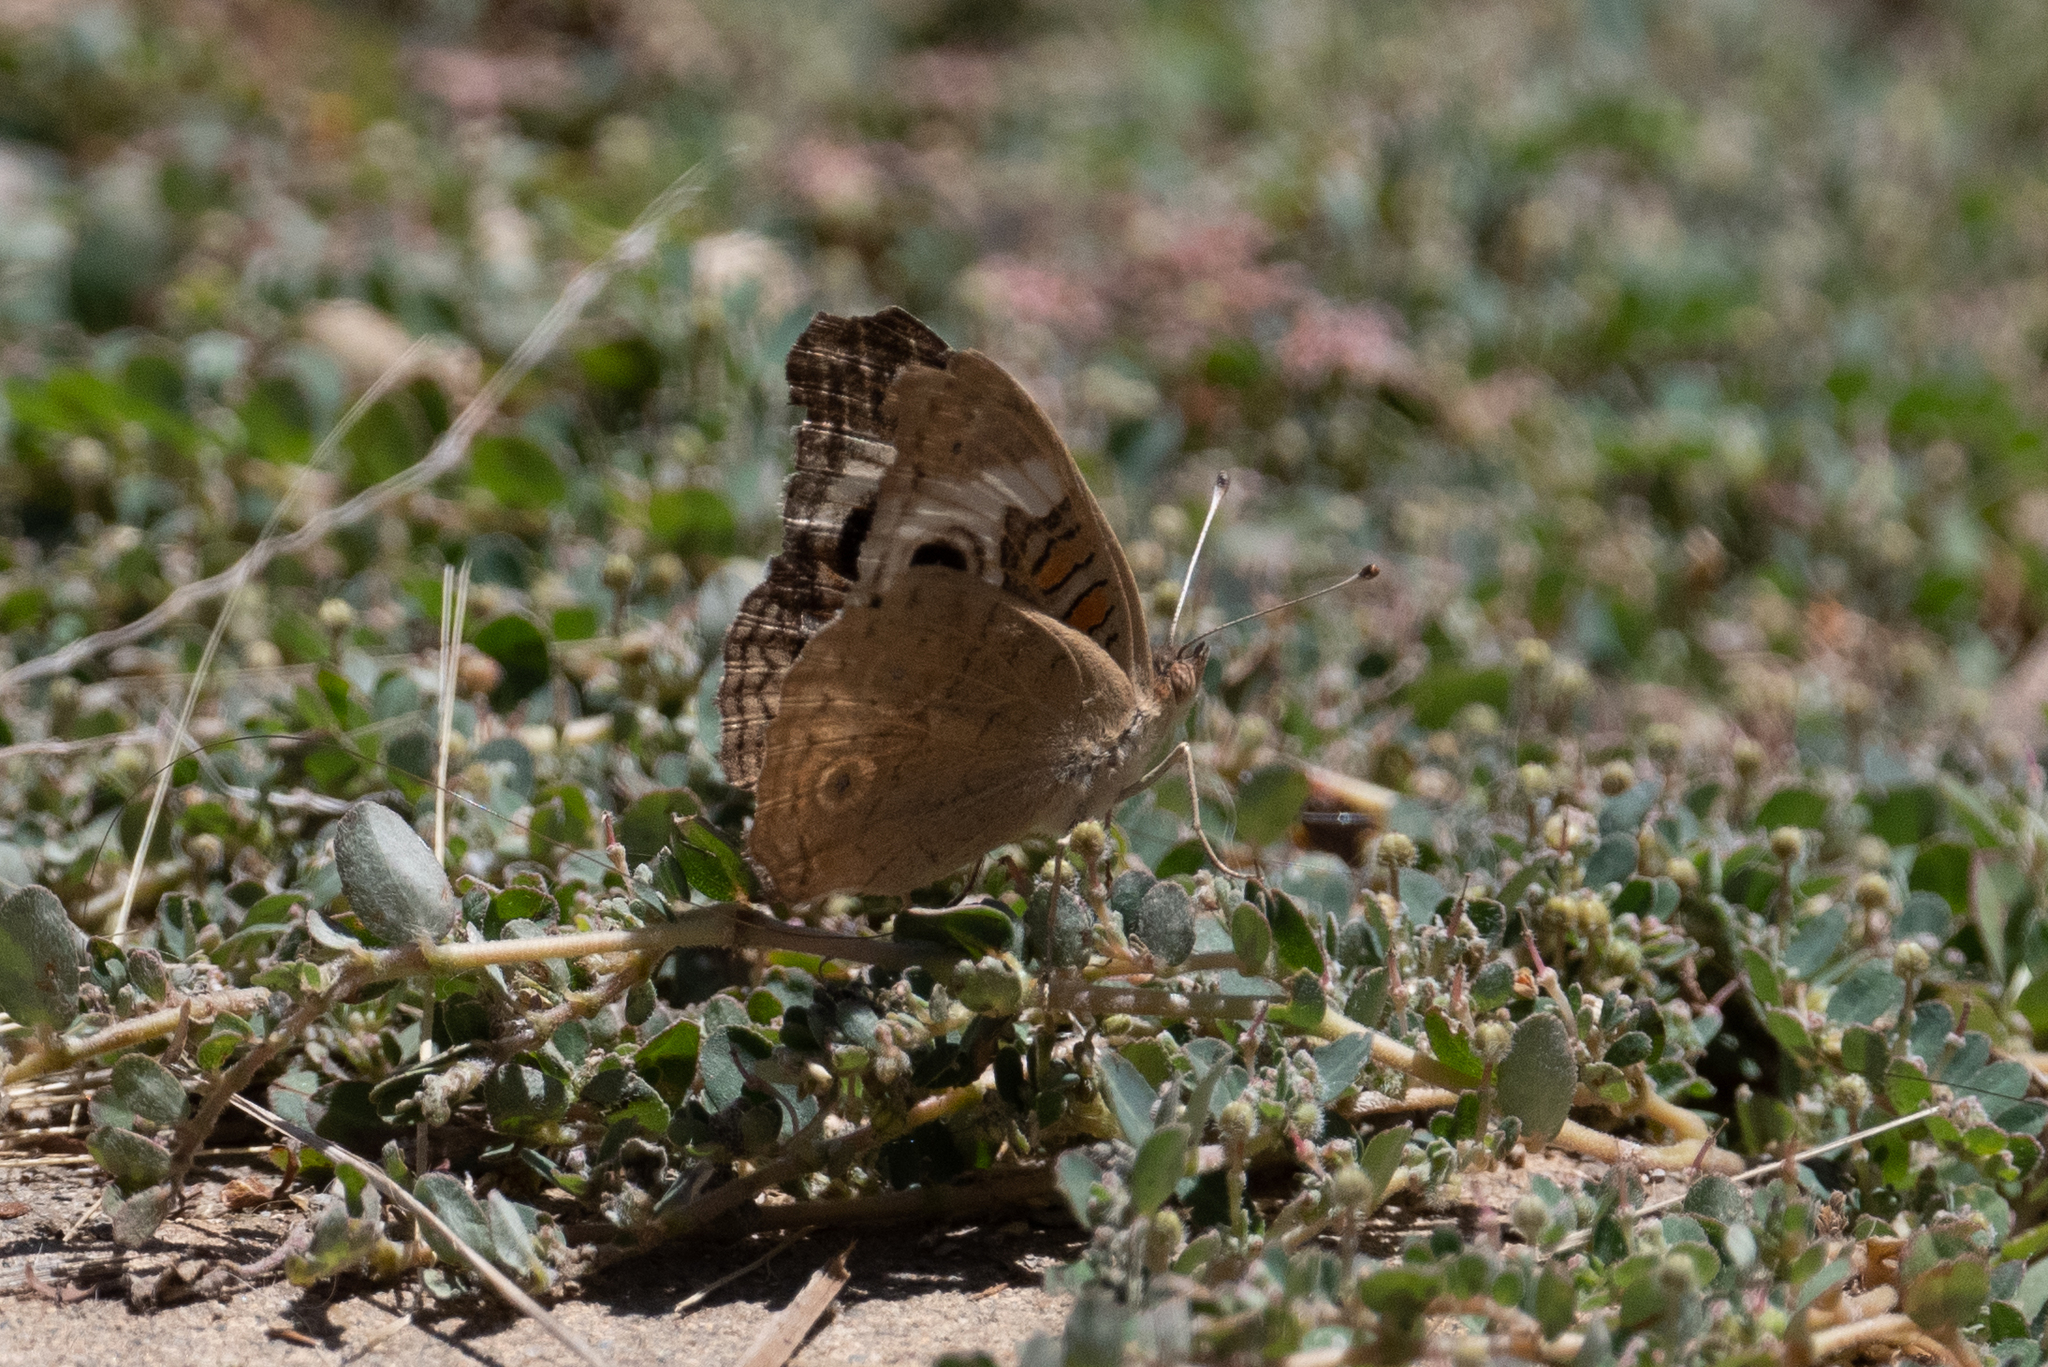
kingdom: Animalia
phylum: Arthropoda
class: Insecta
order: Lepidoptera
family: Nymphalidae
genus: Junonia
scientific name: Junonia grisea
